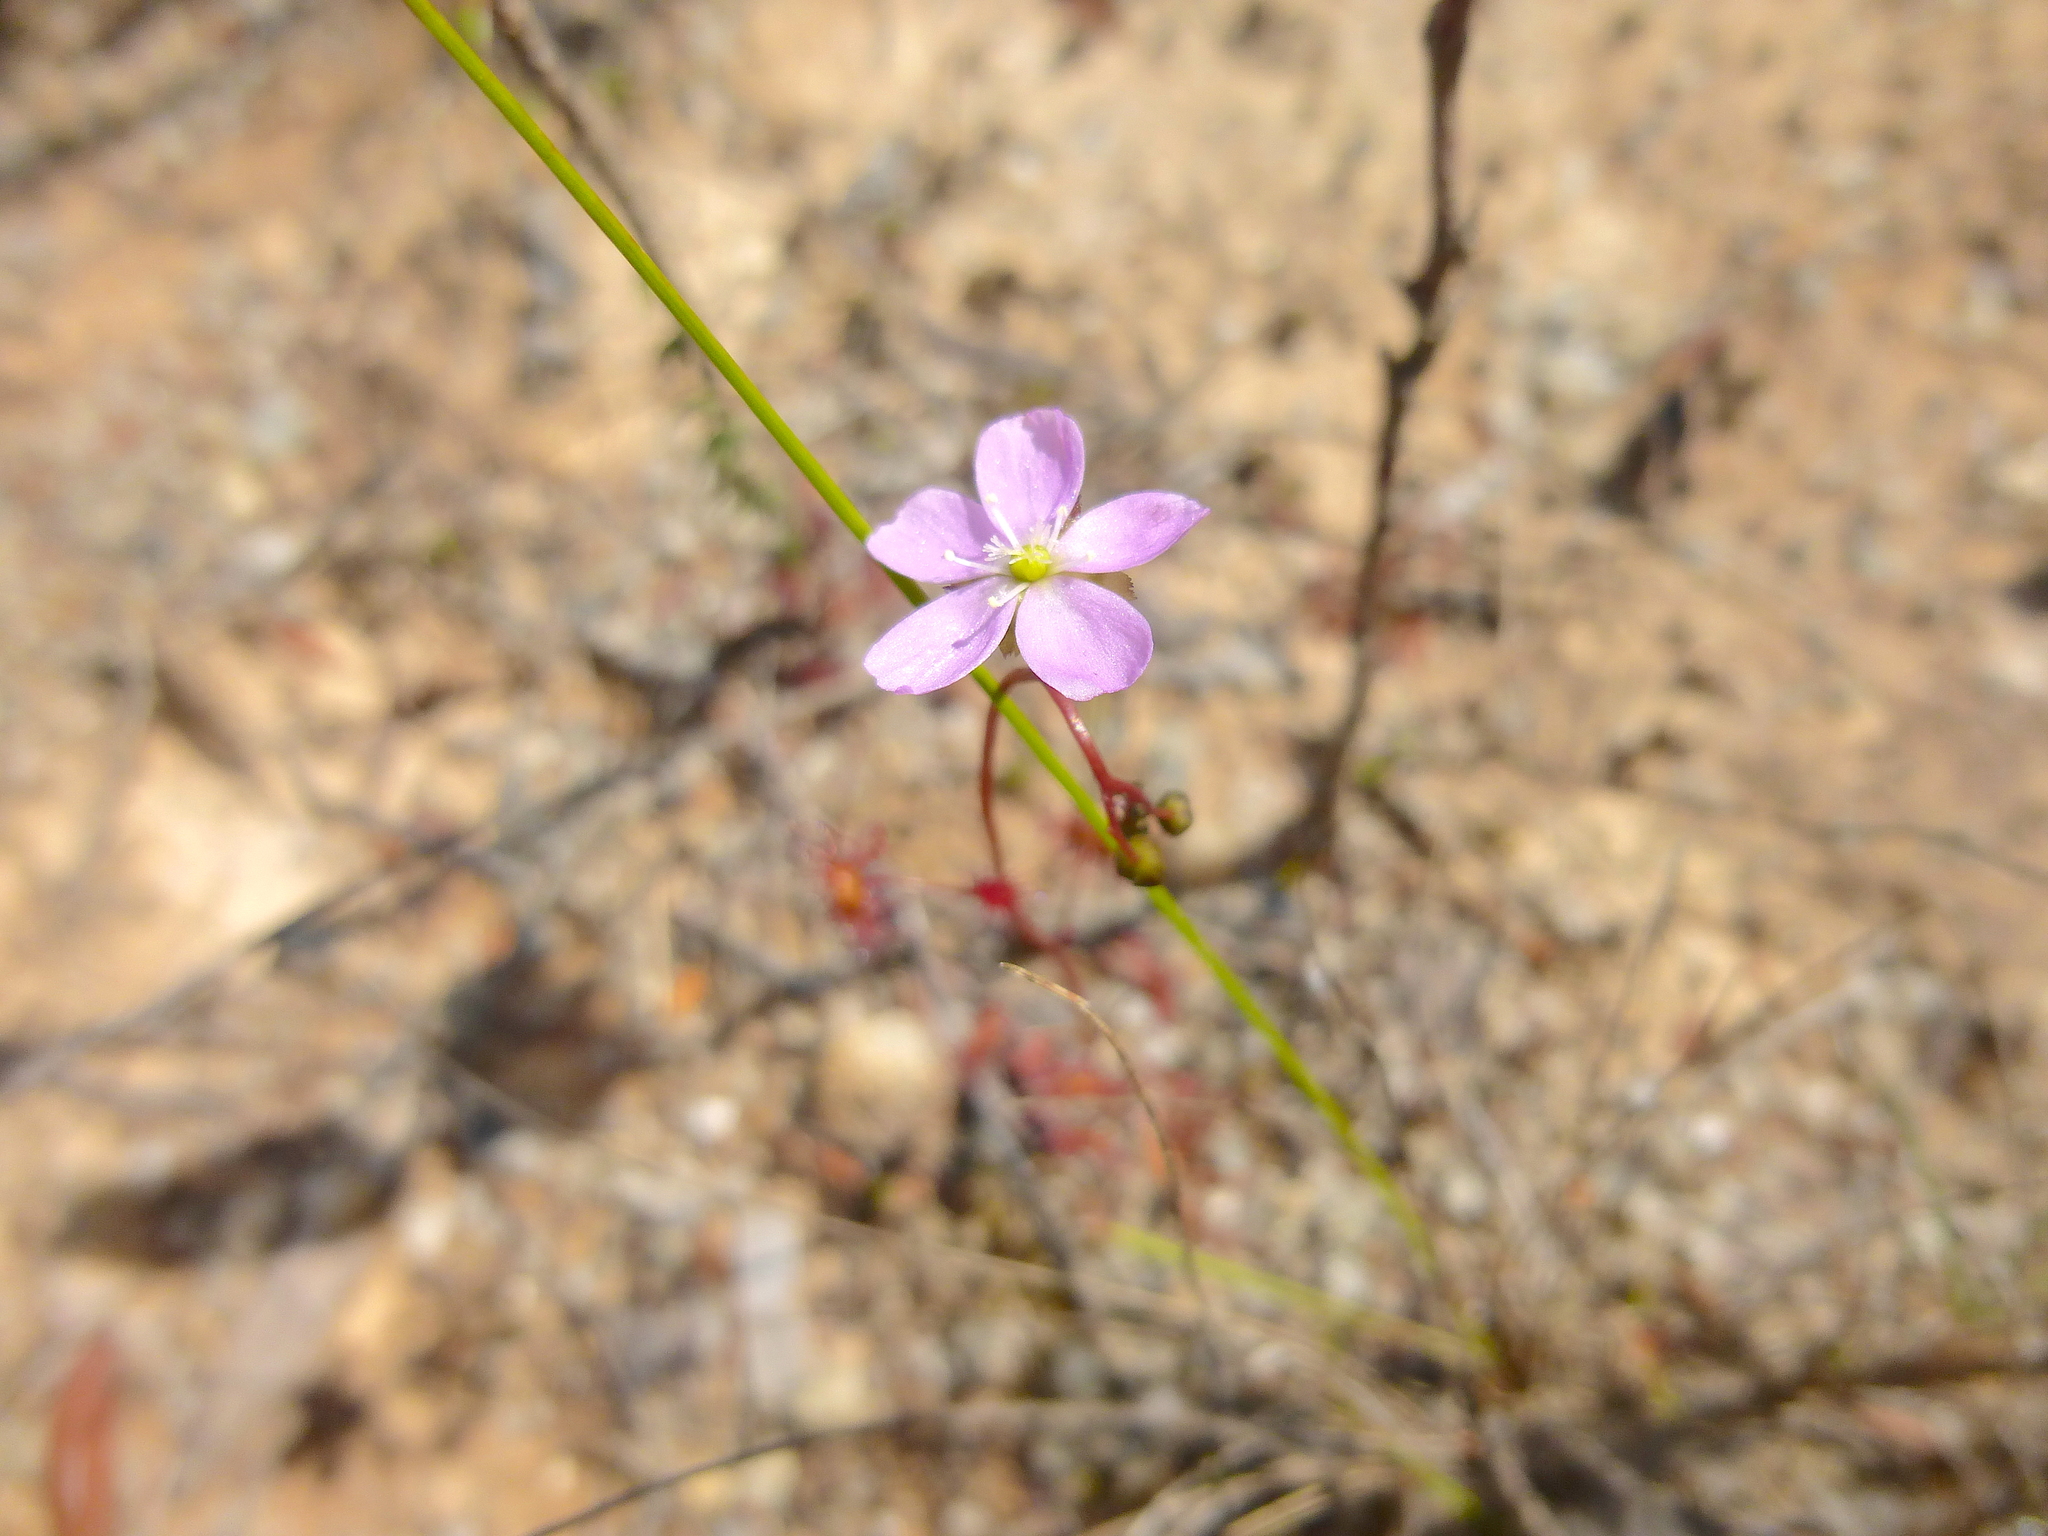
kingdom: Plantae
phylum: Tracheophyta
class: Magnoliopsida
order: Caryophyllales
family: Droseraceae
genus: Drosera
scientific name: Drosera peltata
